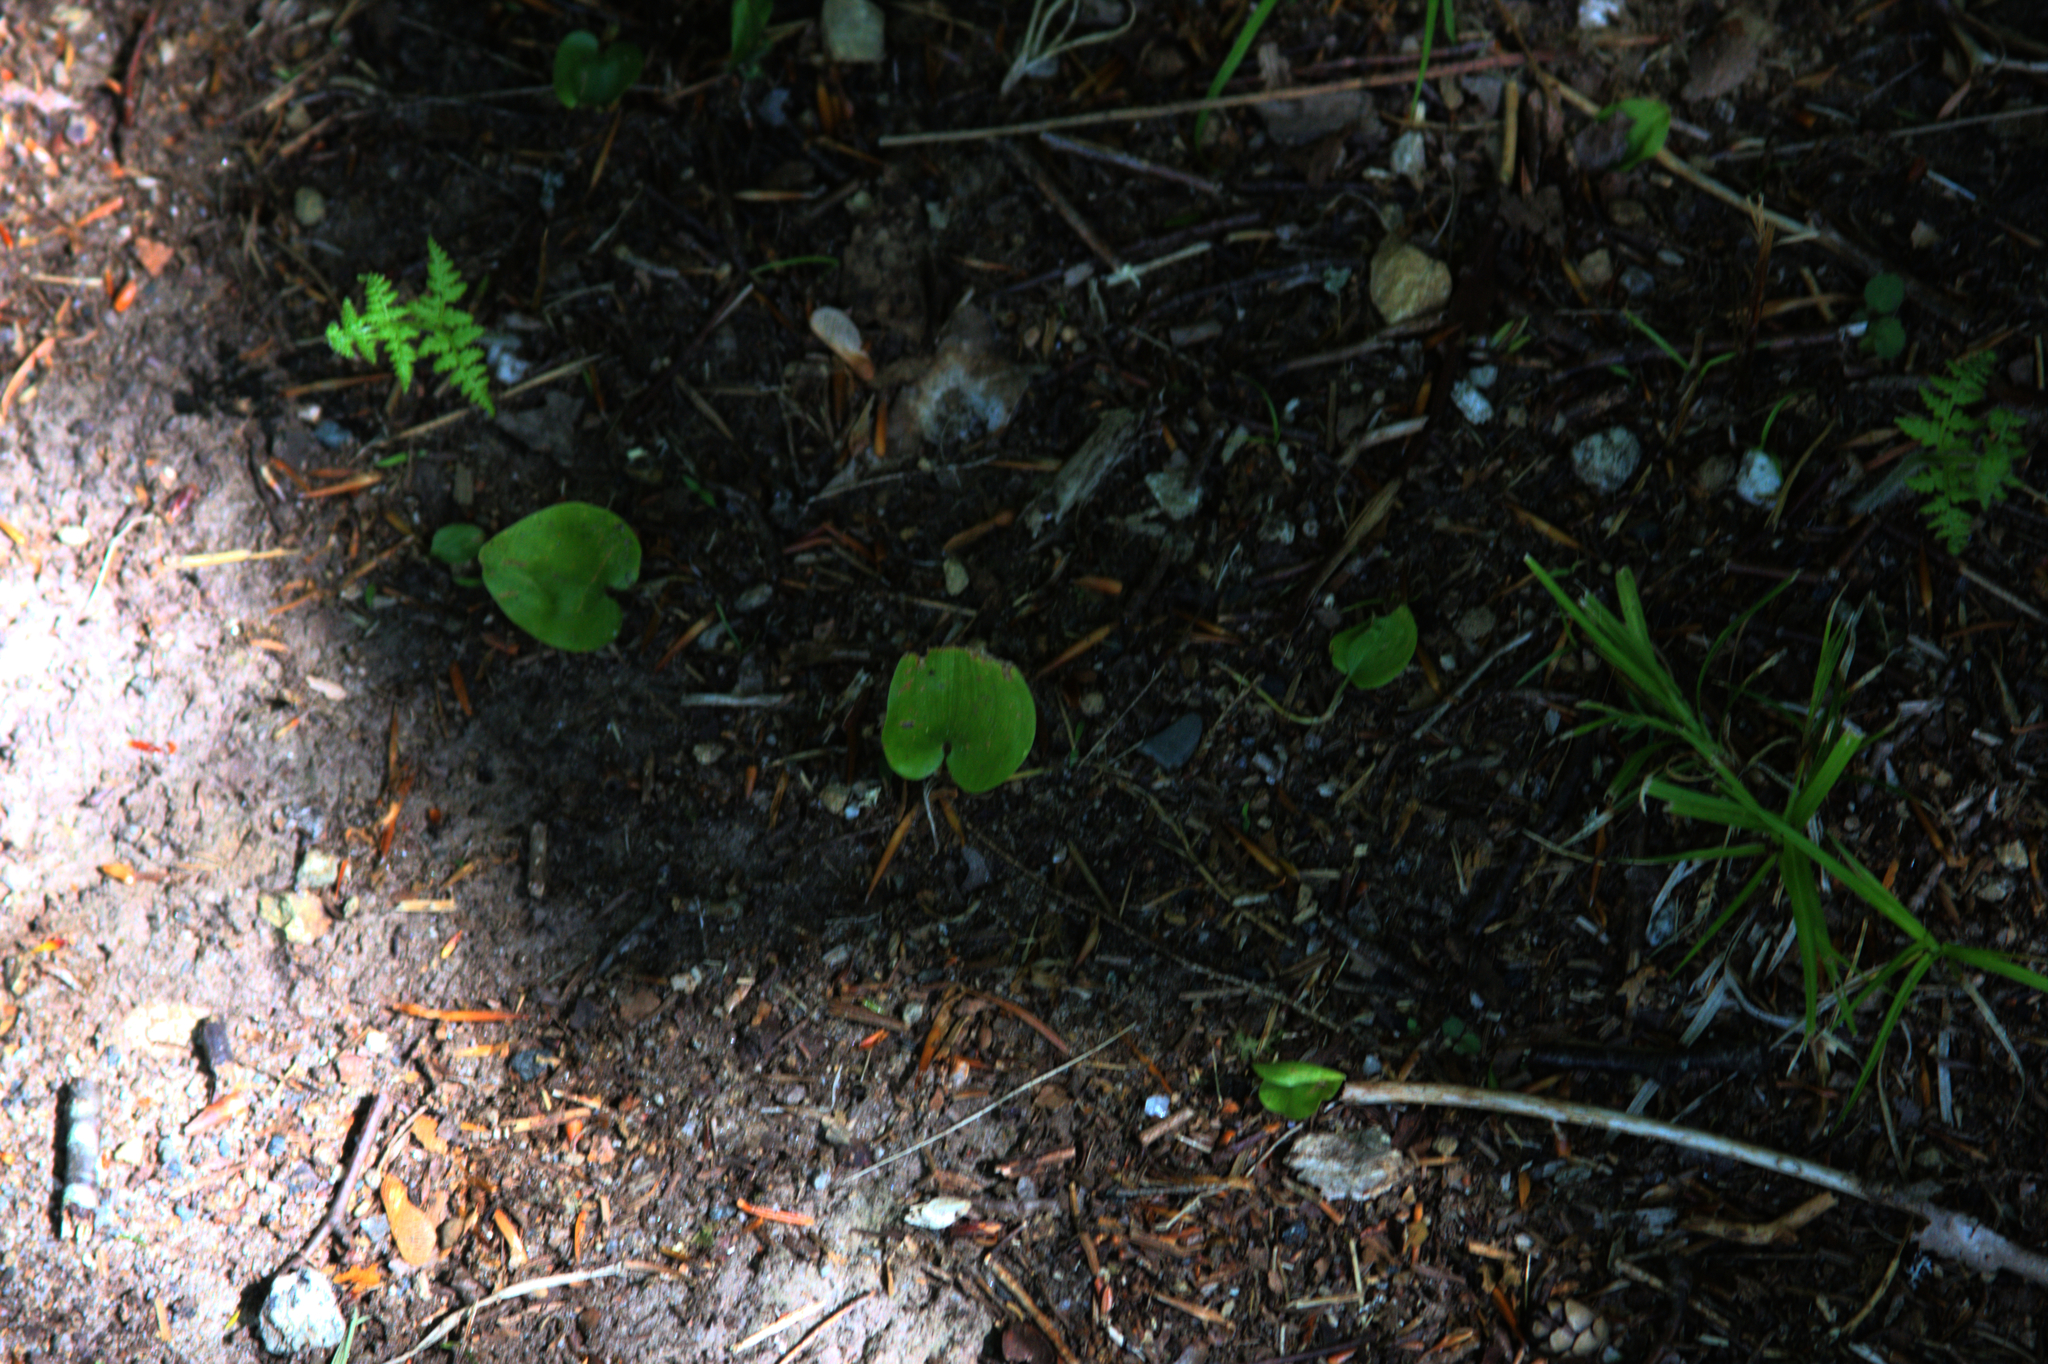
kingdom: Plantae
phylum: Tracheophyta
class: Liliopsida
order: Asparagales
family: Asparagaceae
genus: Maianthemum
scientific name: Maianthemum canadense
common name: False lily-of-the-valley
